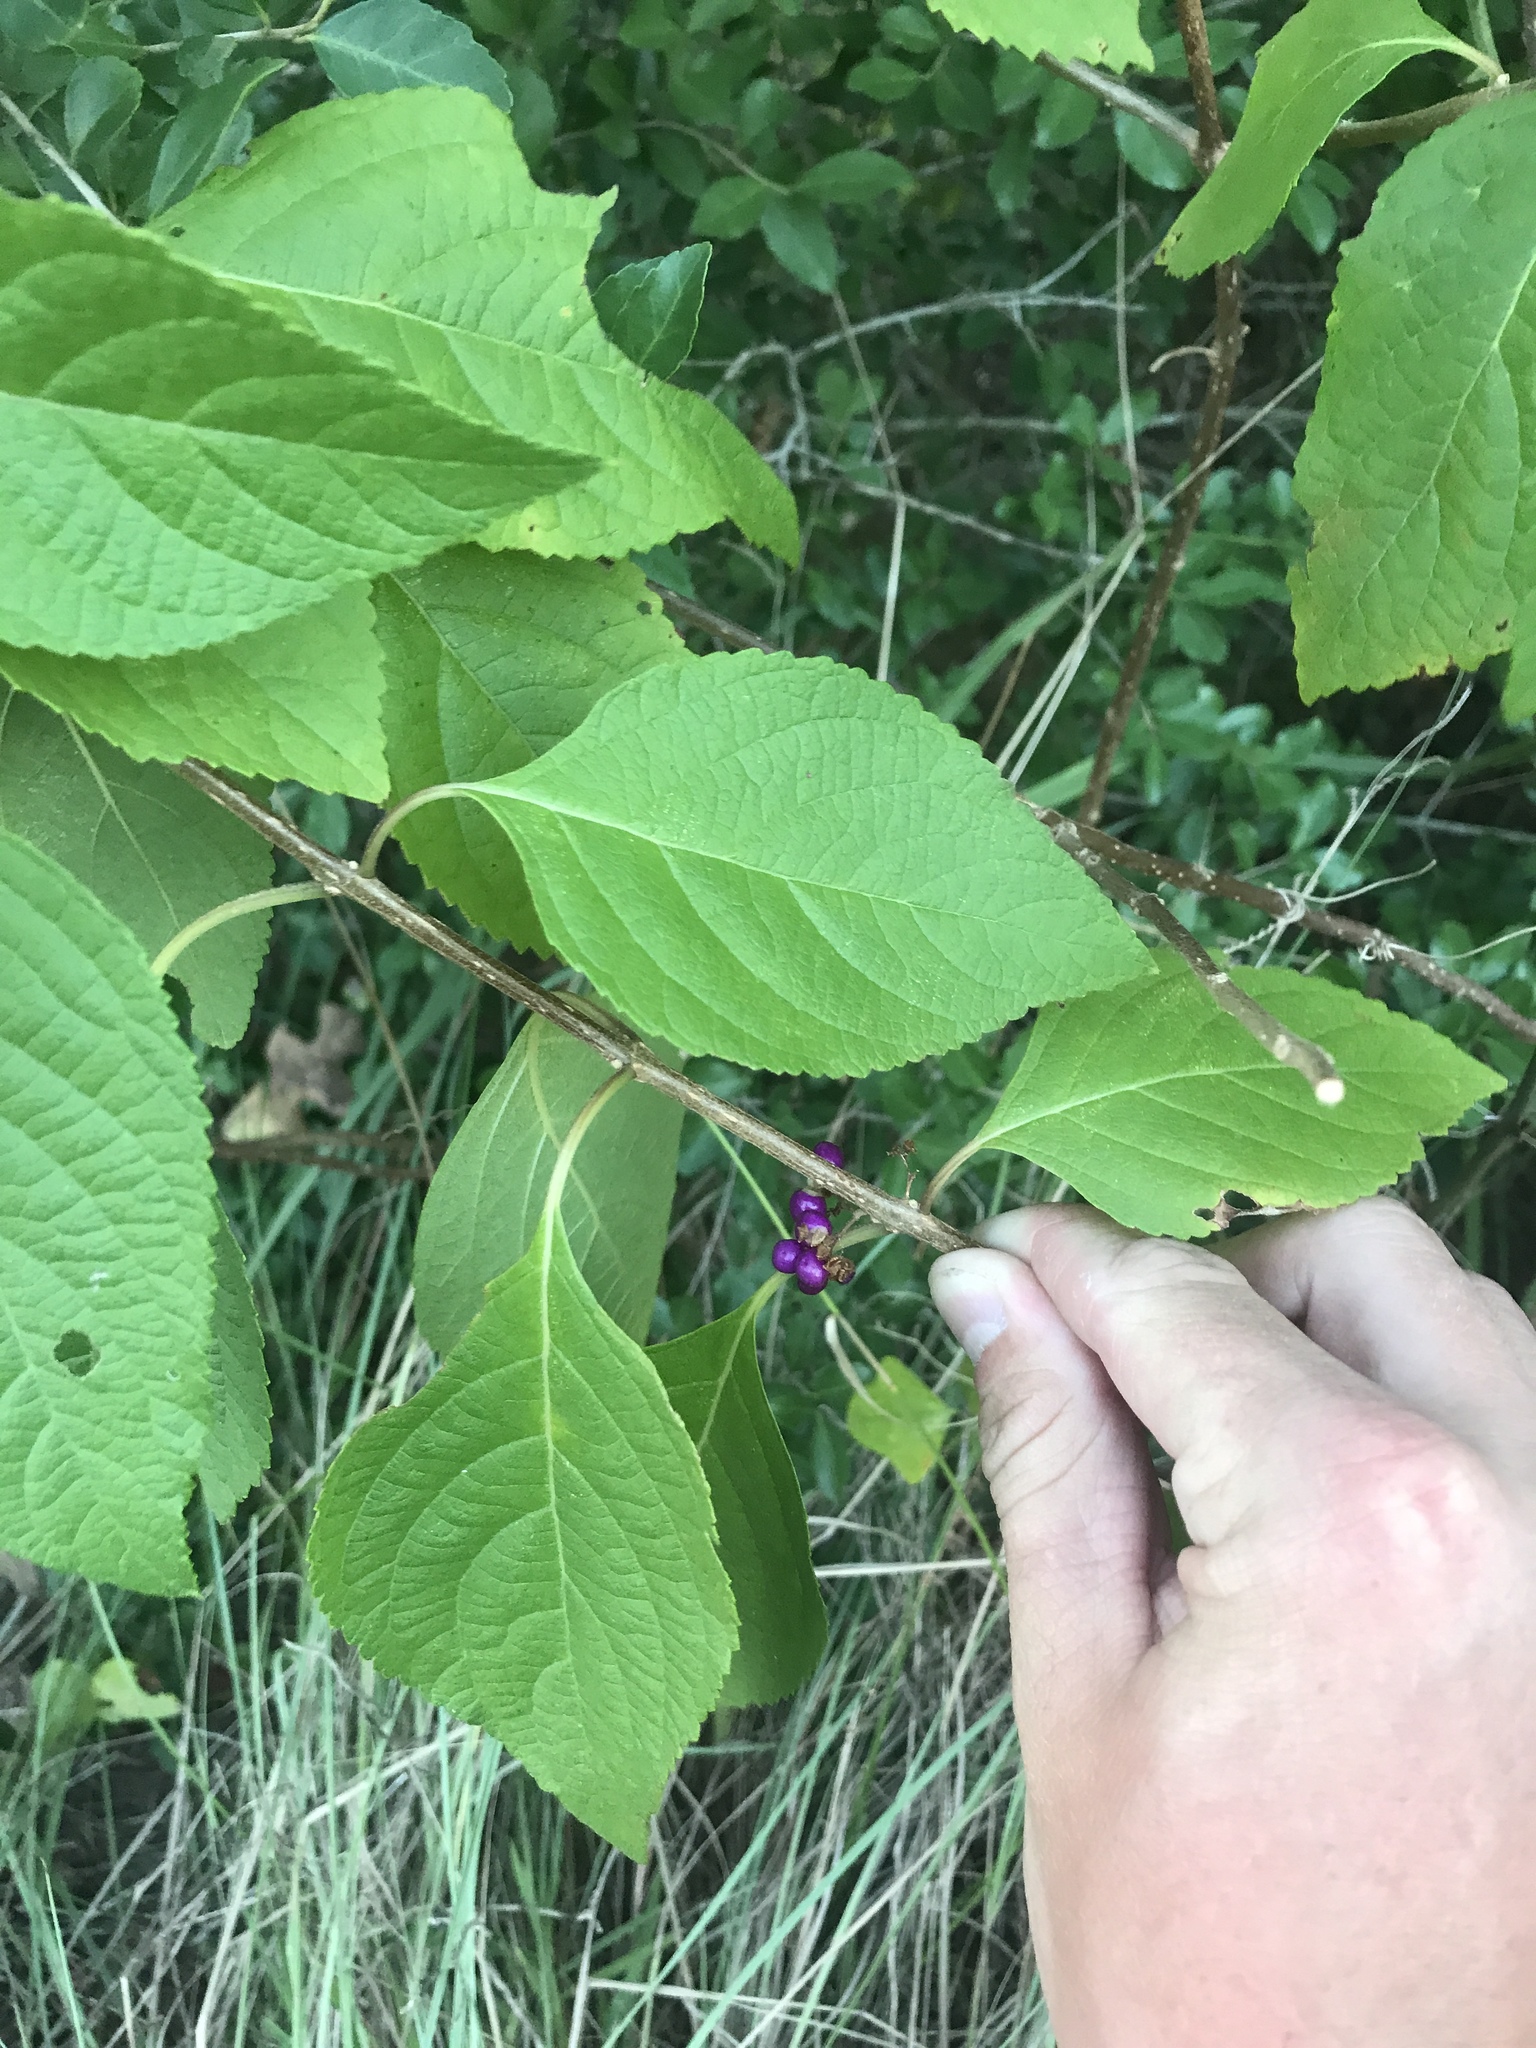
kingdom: Plantae
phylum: Tracheophyta
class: Magnoliopsida
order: Lamiales
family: Lamiaceae
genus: Callicarpa
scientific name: Callicarpa americana
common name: American beautyberry
